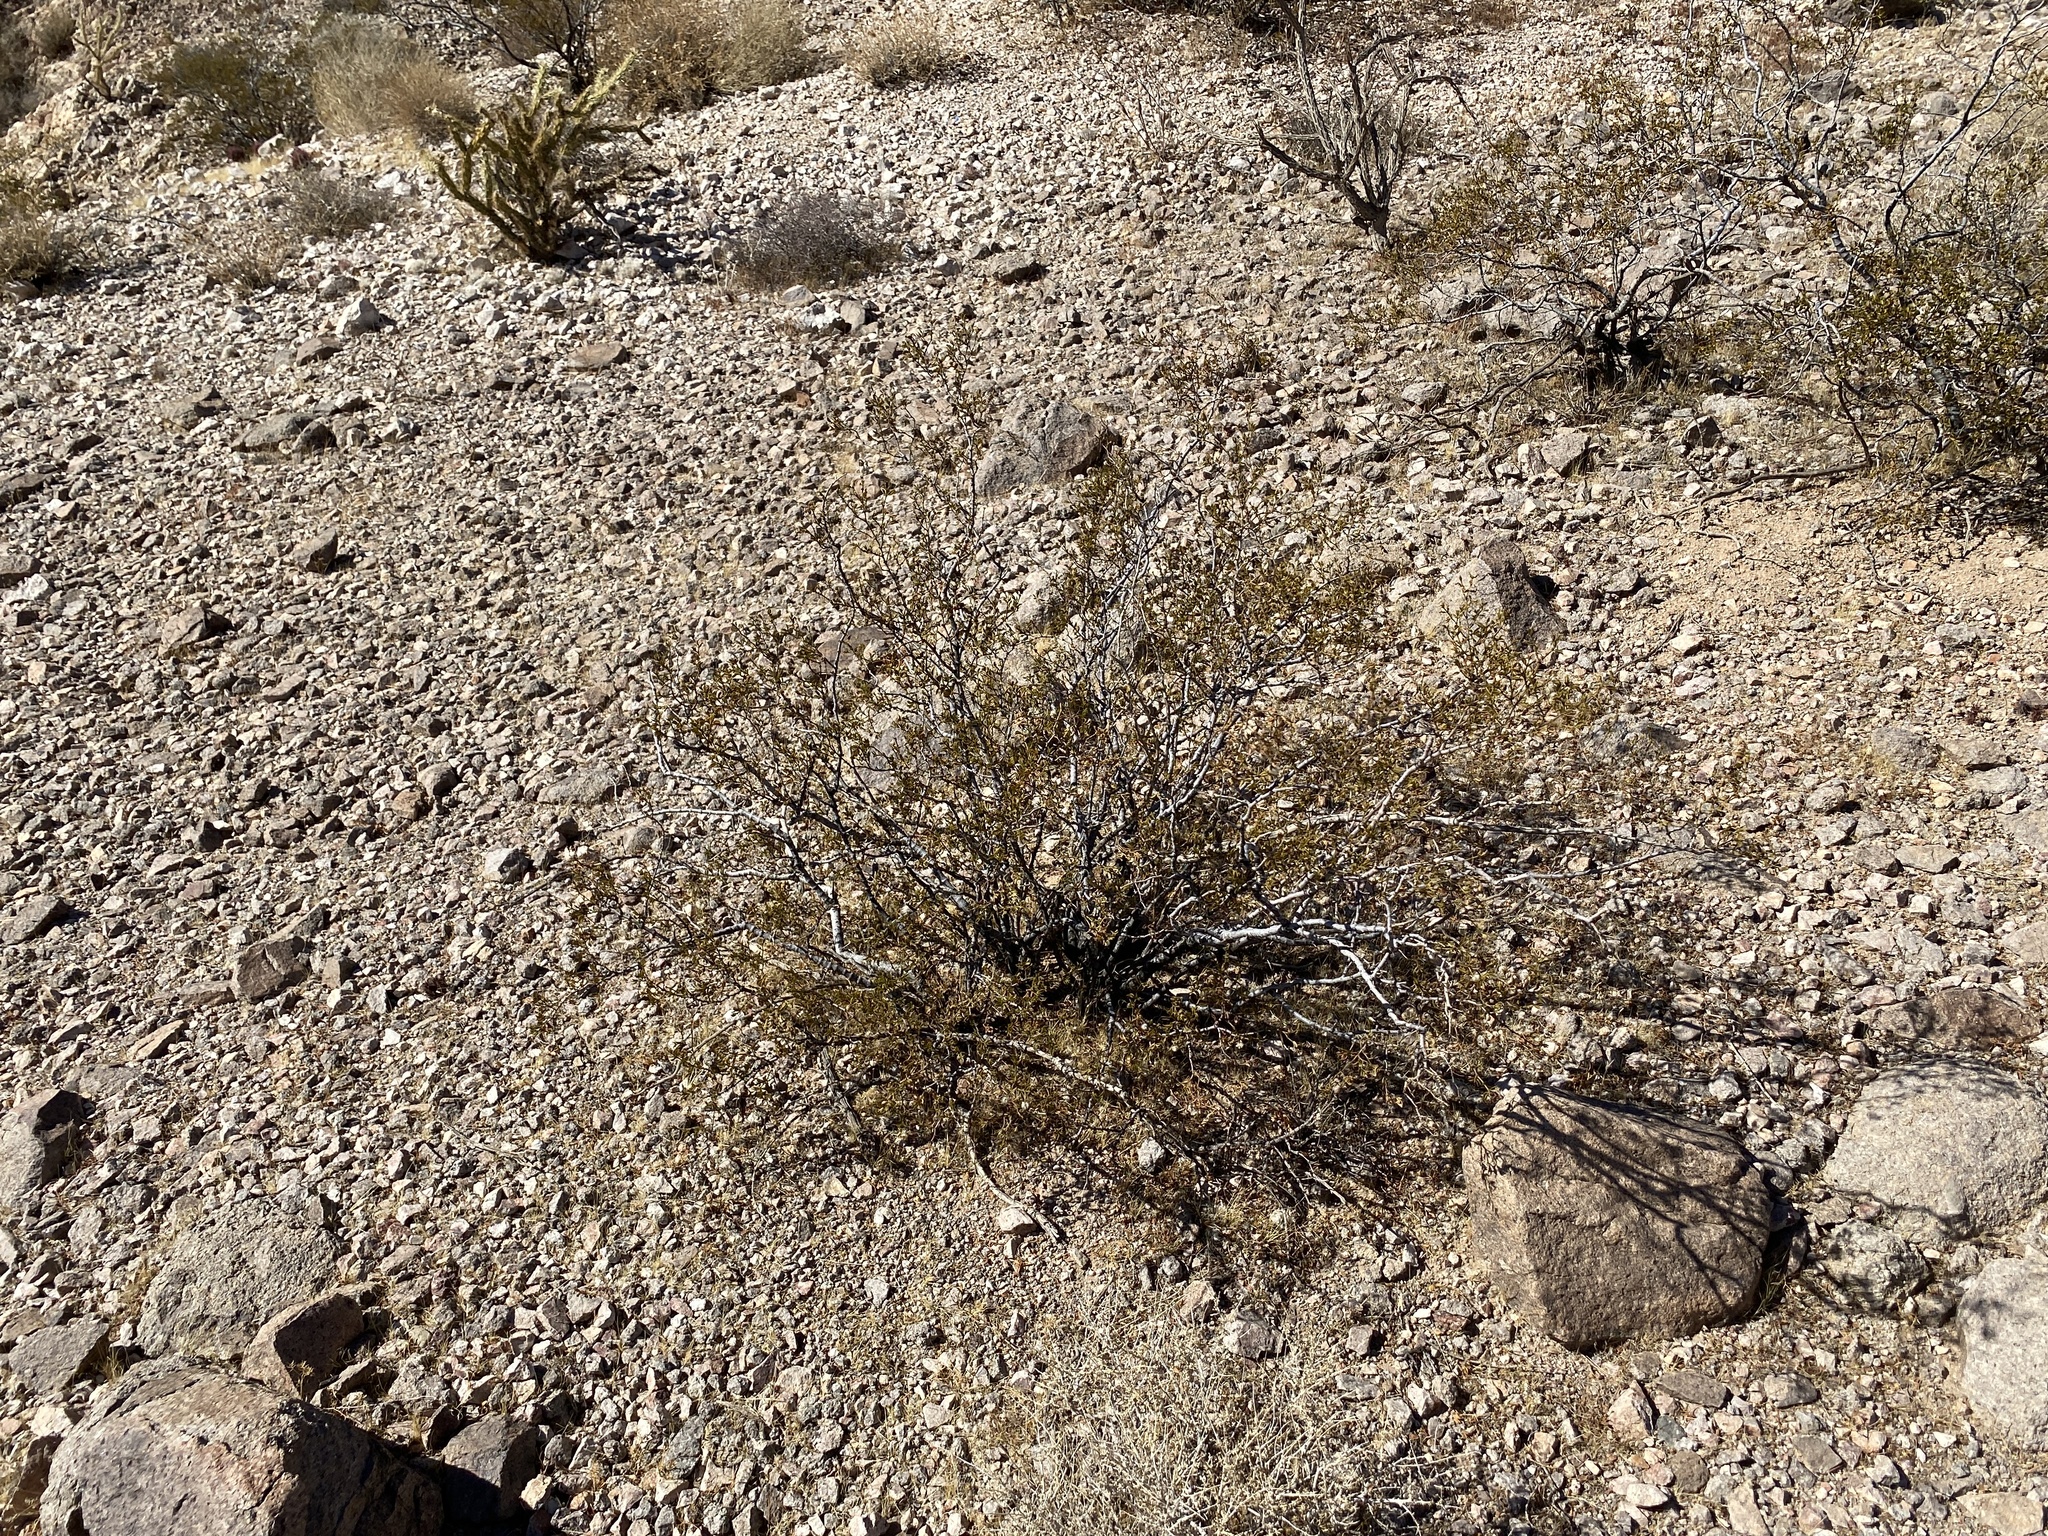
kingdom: Plantae
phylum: Tracheophyta
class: Magnoliopsida
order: Zygophyllales
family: Zygophyllaceae
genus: Larrea
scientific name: Larrea tridentata
